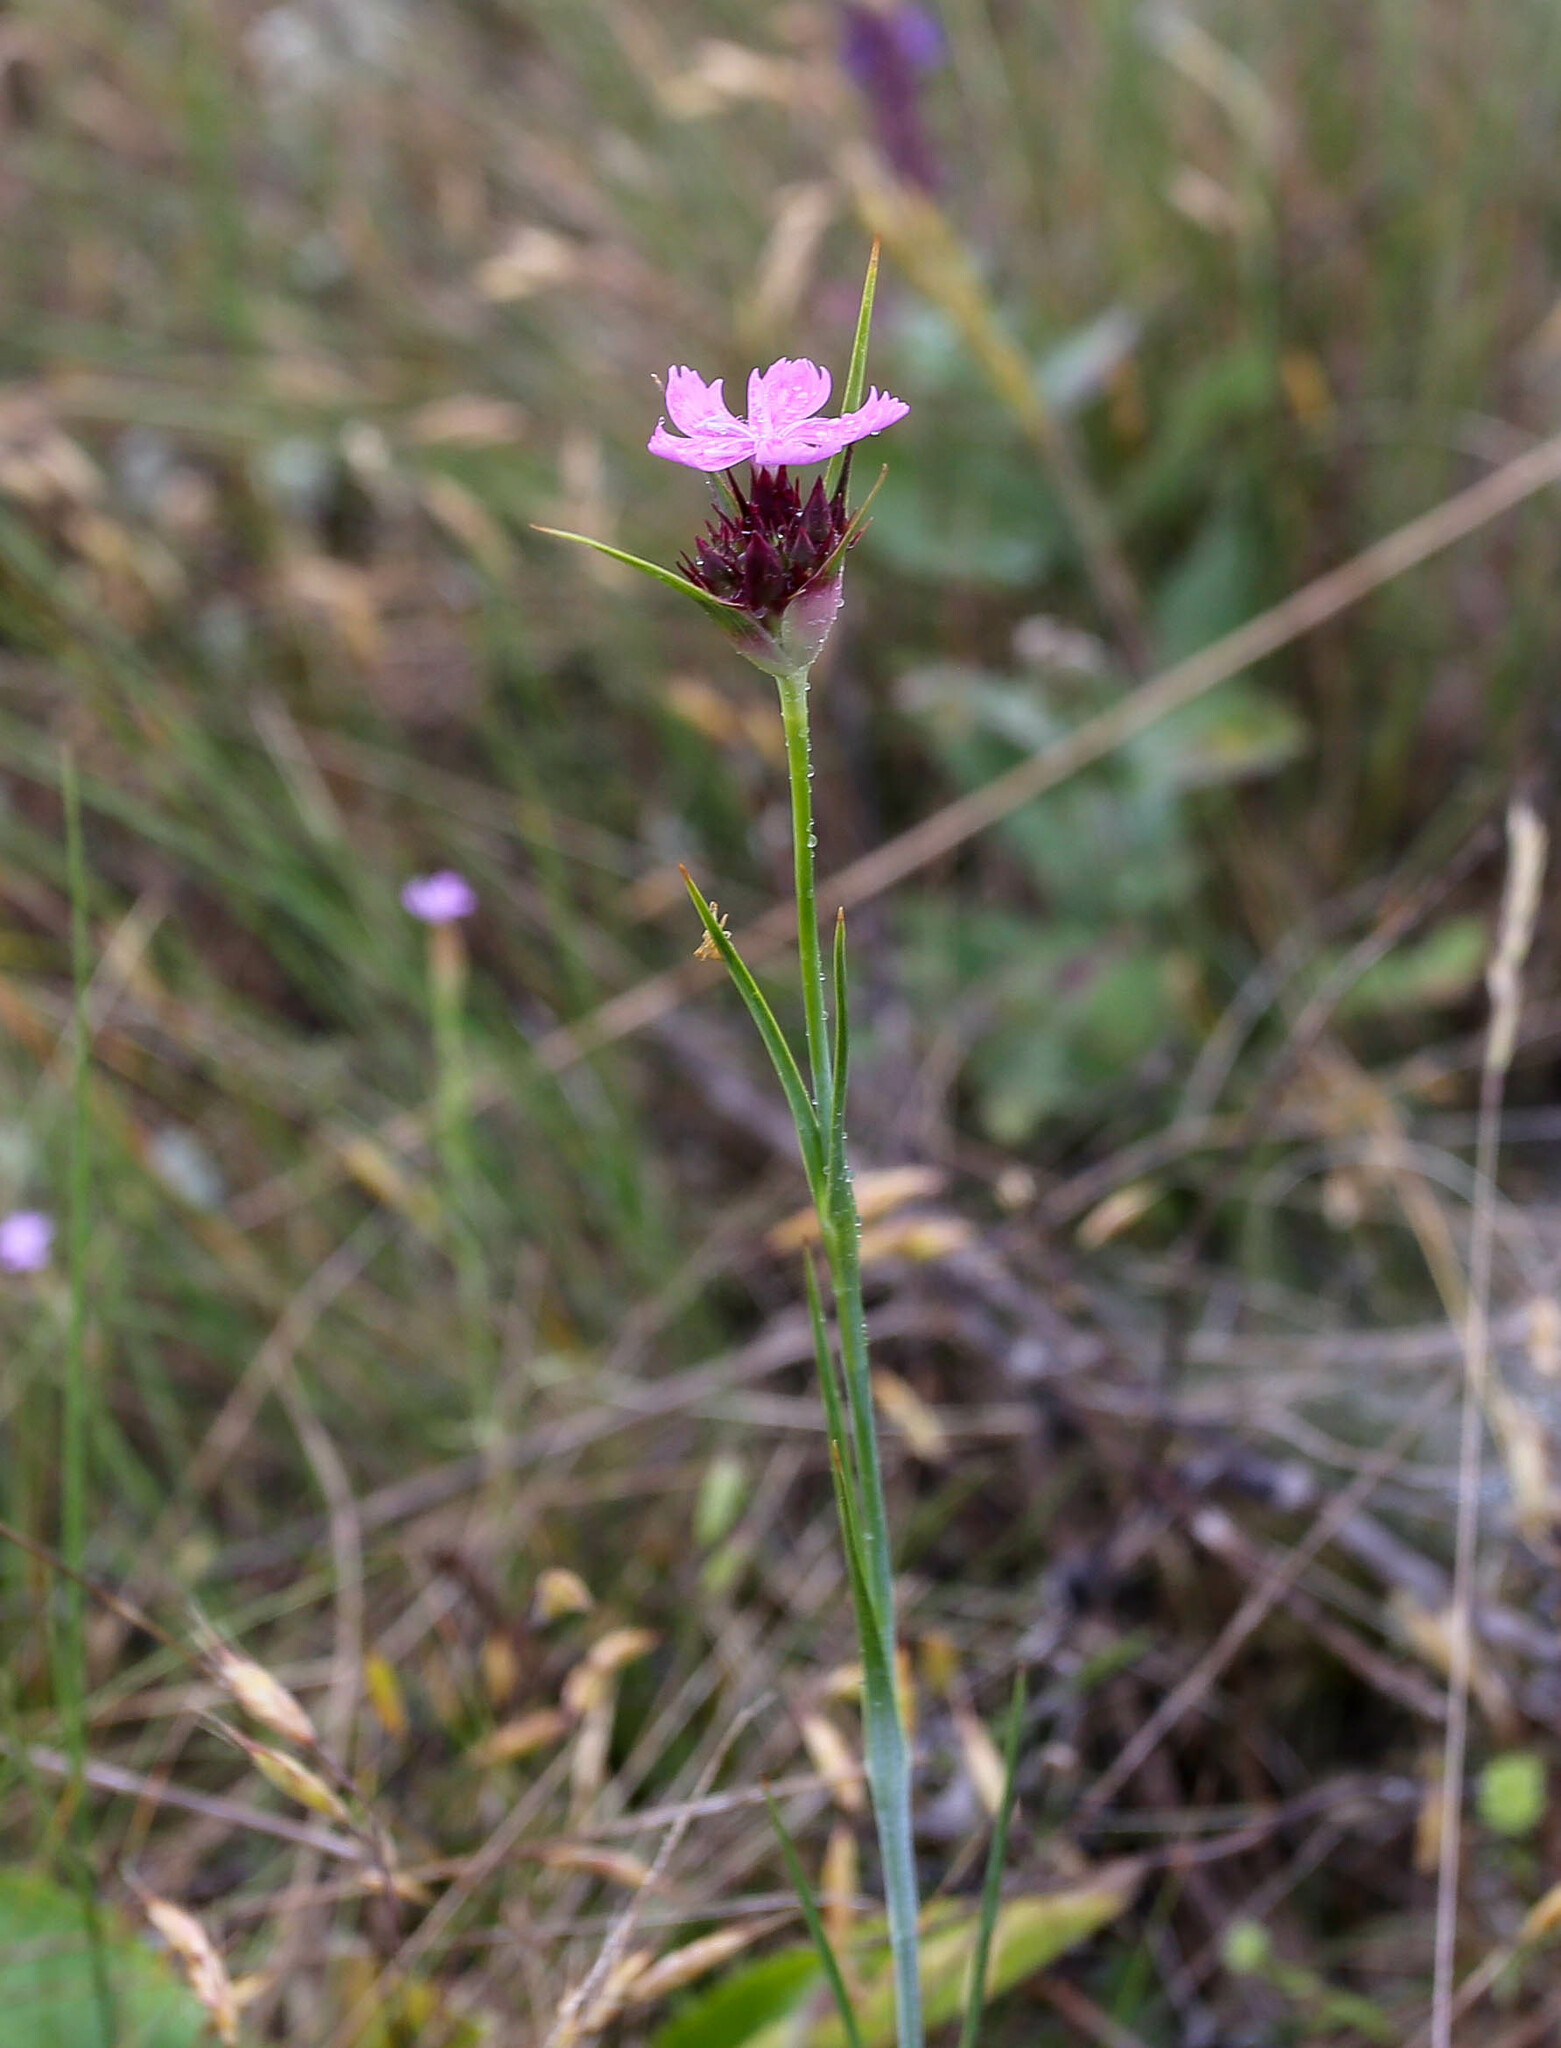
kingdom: Plantae
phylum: Tracheophyta
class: Magnoliopsida
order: Caryophyllales
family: Caryophyllaceae
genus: Dianthus
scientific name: Dianthus capitatus
